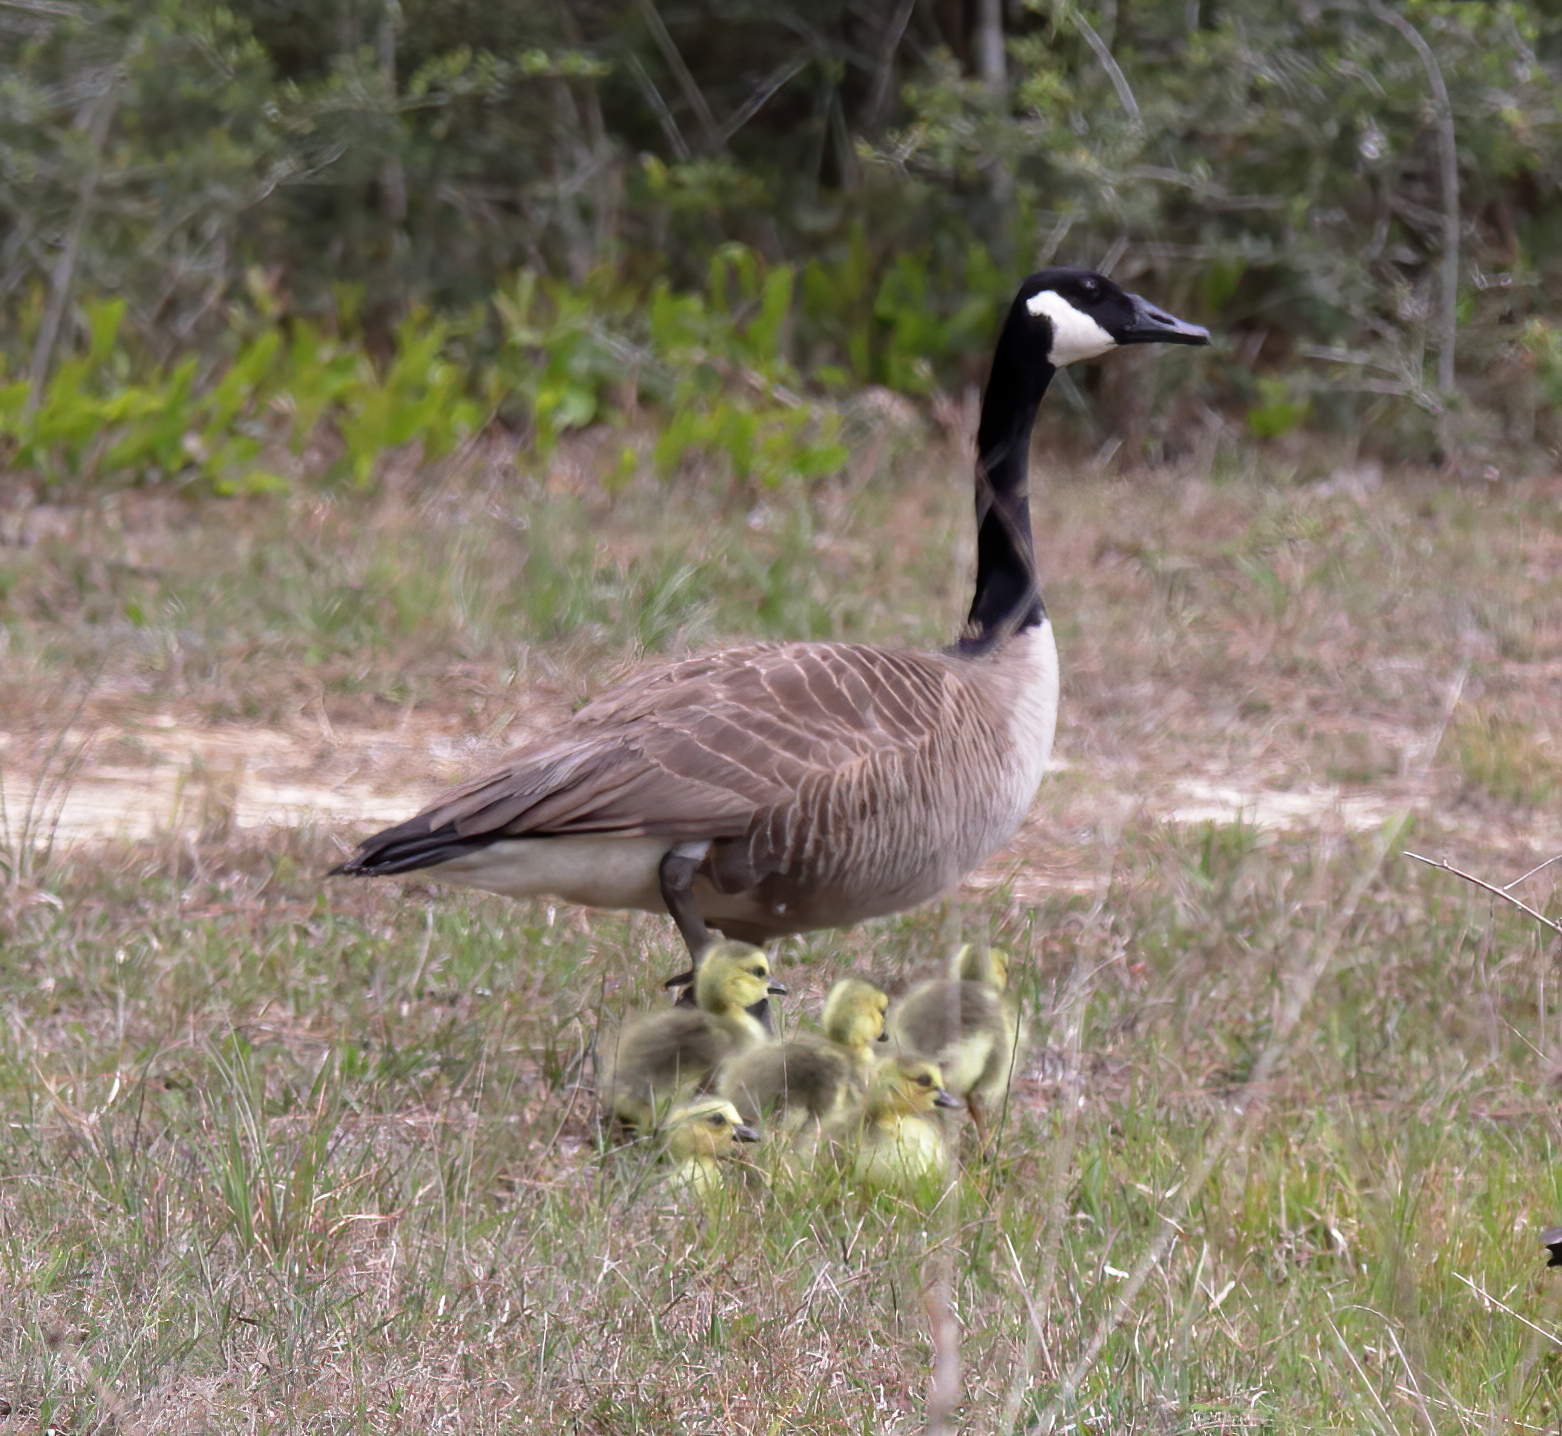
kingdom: Animalia
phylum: Chordata
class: Aves
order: Anseriformes
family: Anatidae
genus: Branta
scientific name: Branta canadensis
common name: Canada goose
